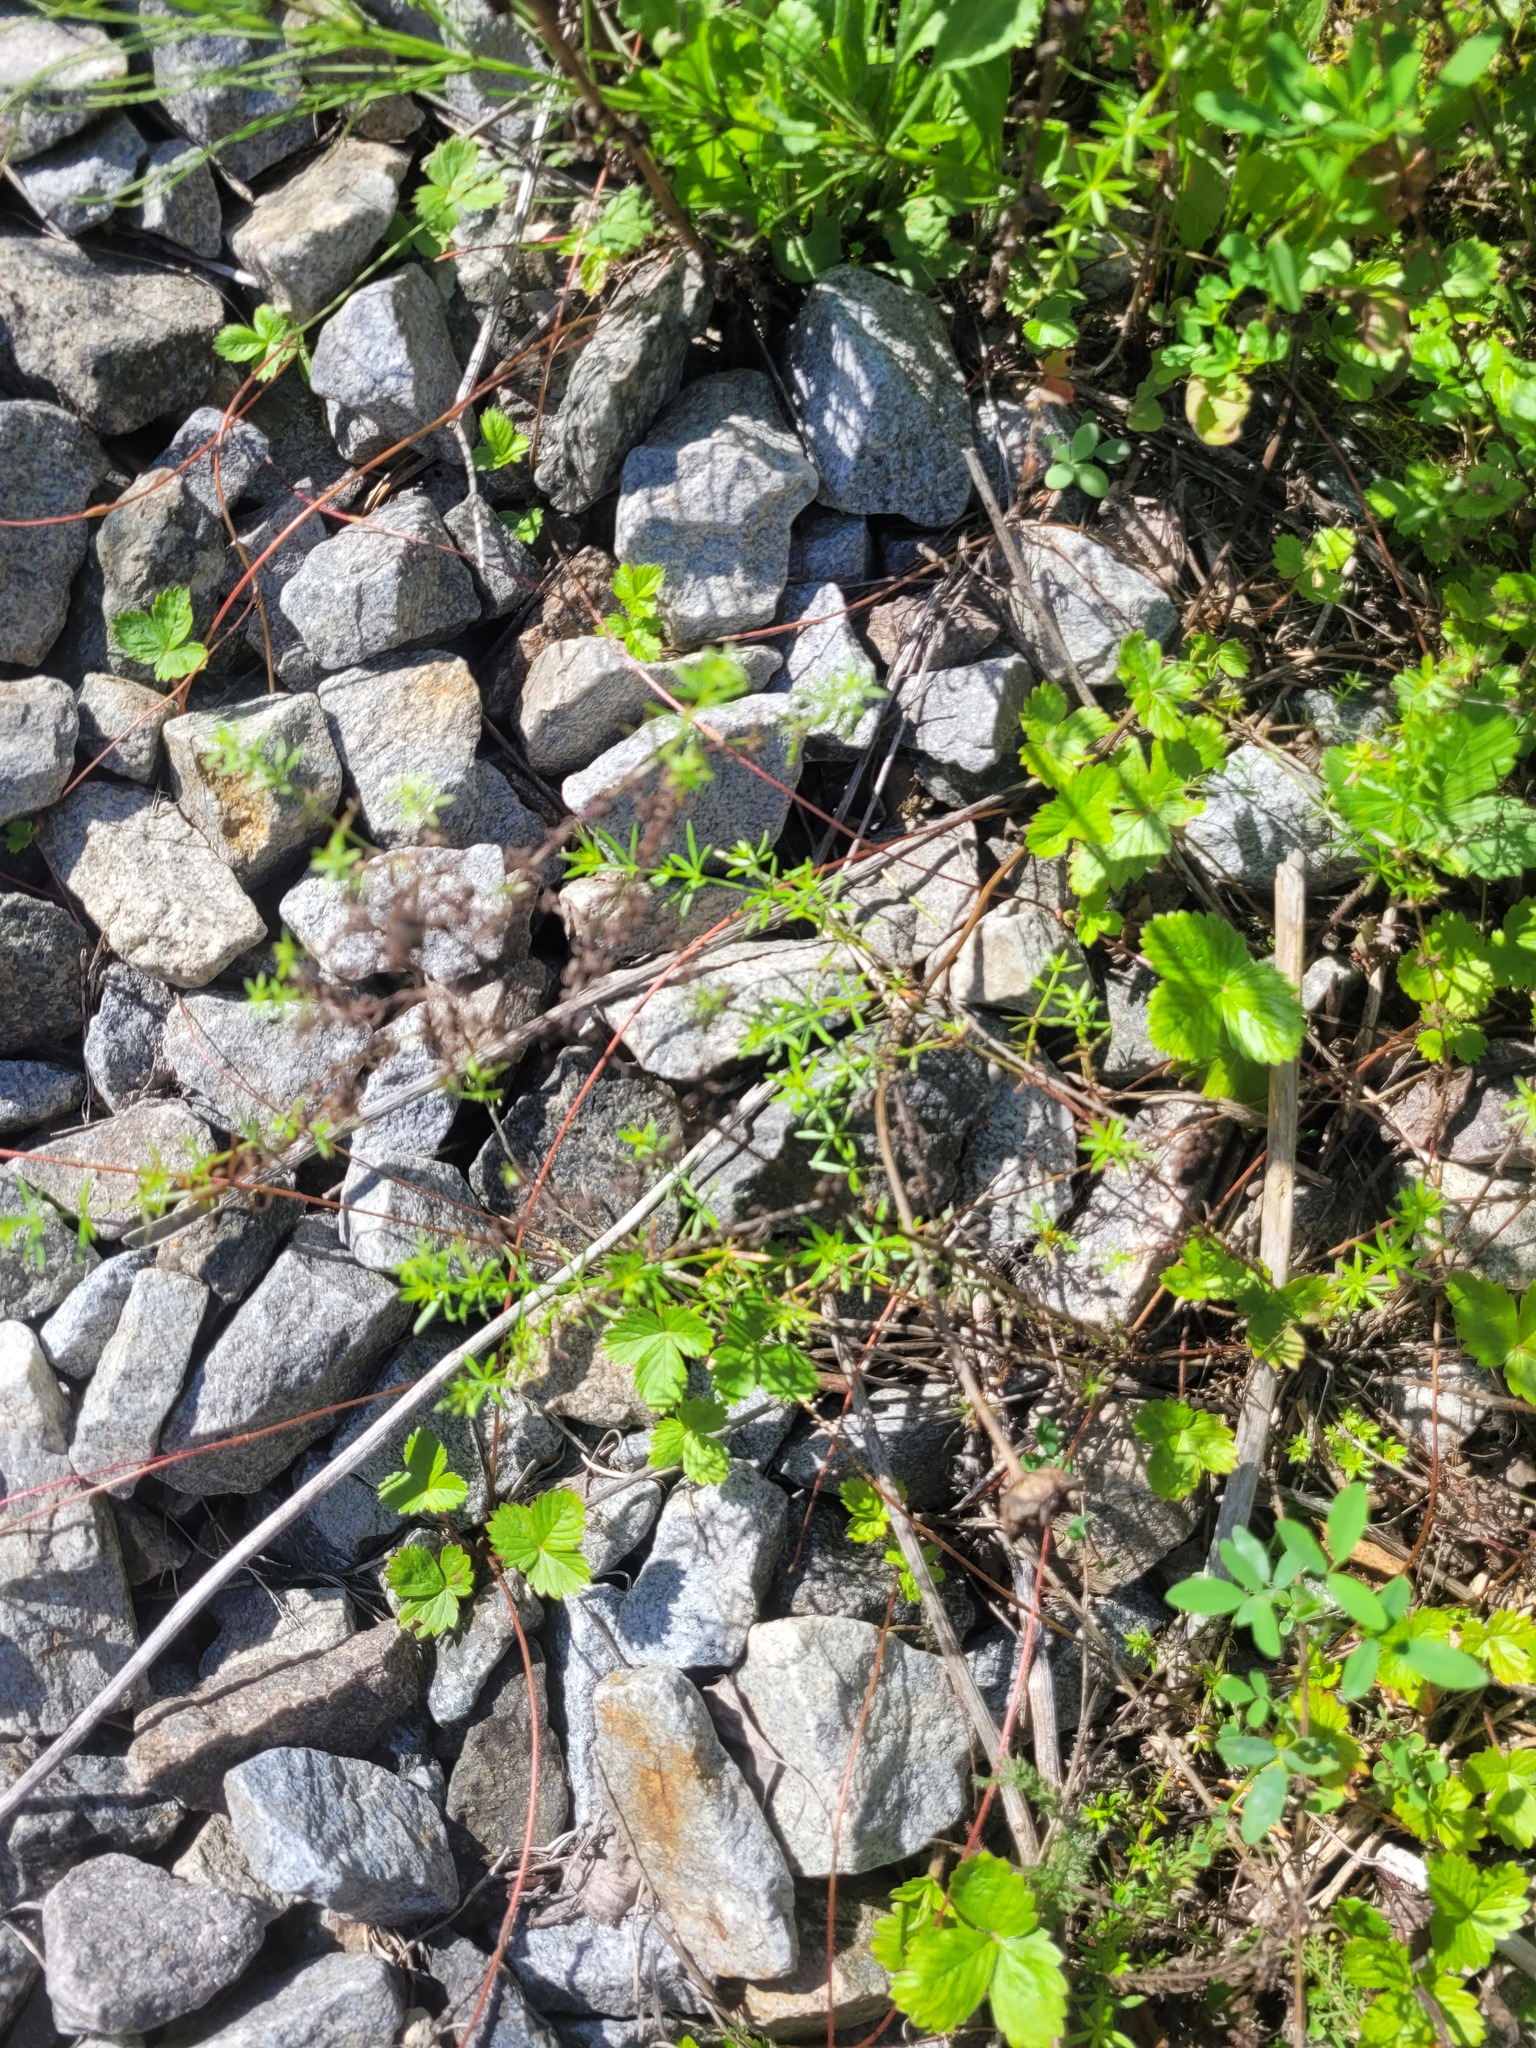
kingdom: Plantae
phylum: Tracheophyta
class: Magnoliopsida
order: Gentianales
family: Rubiaceae
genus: Galium
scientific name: Galium mollugo
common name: Hedge bedstraw
